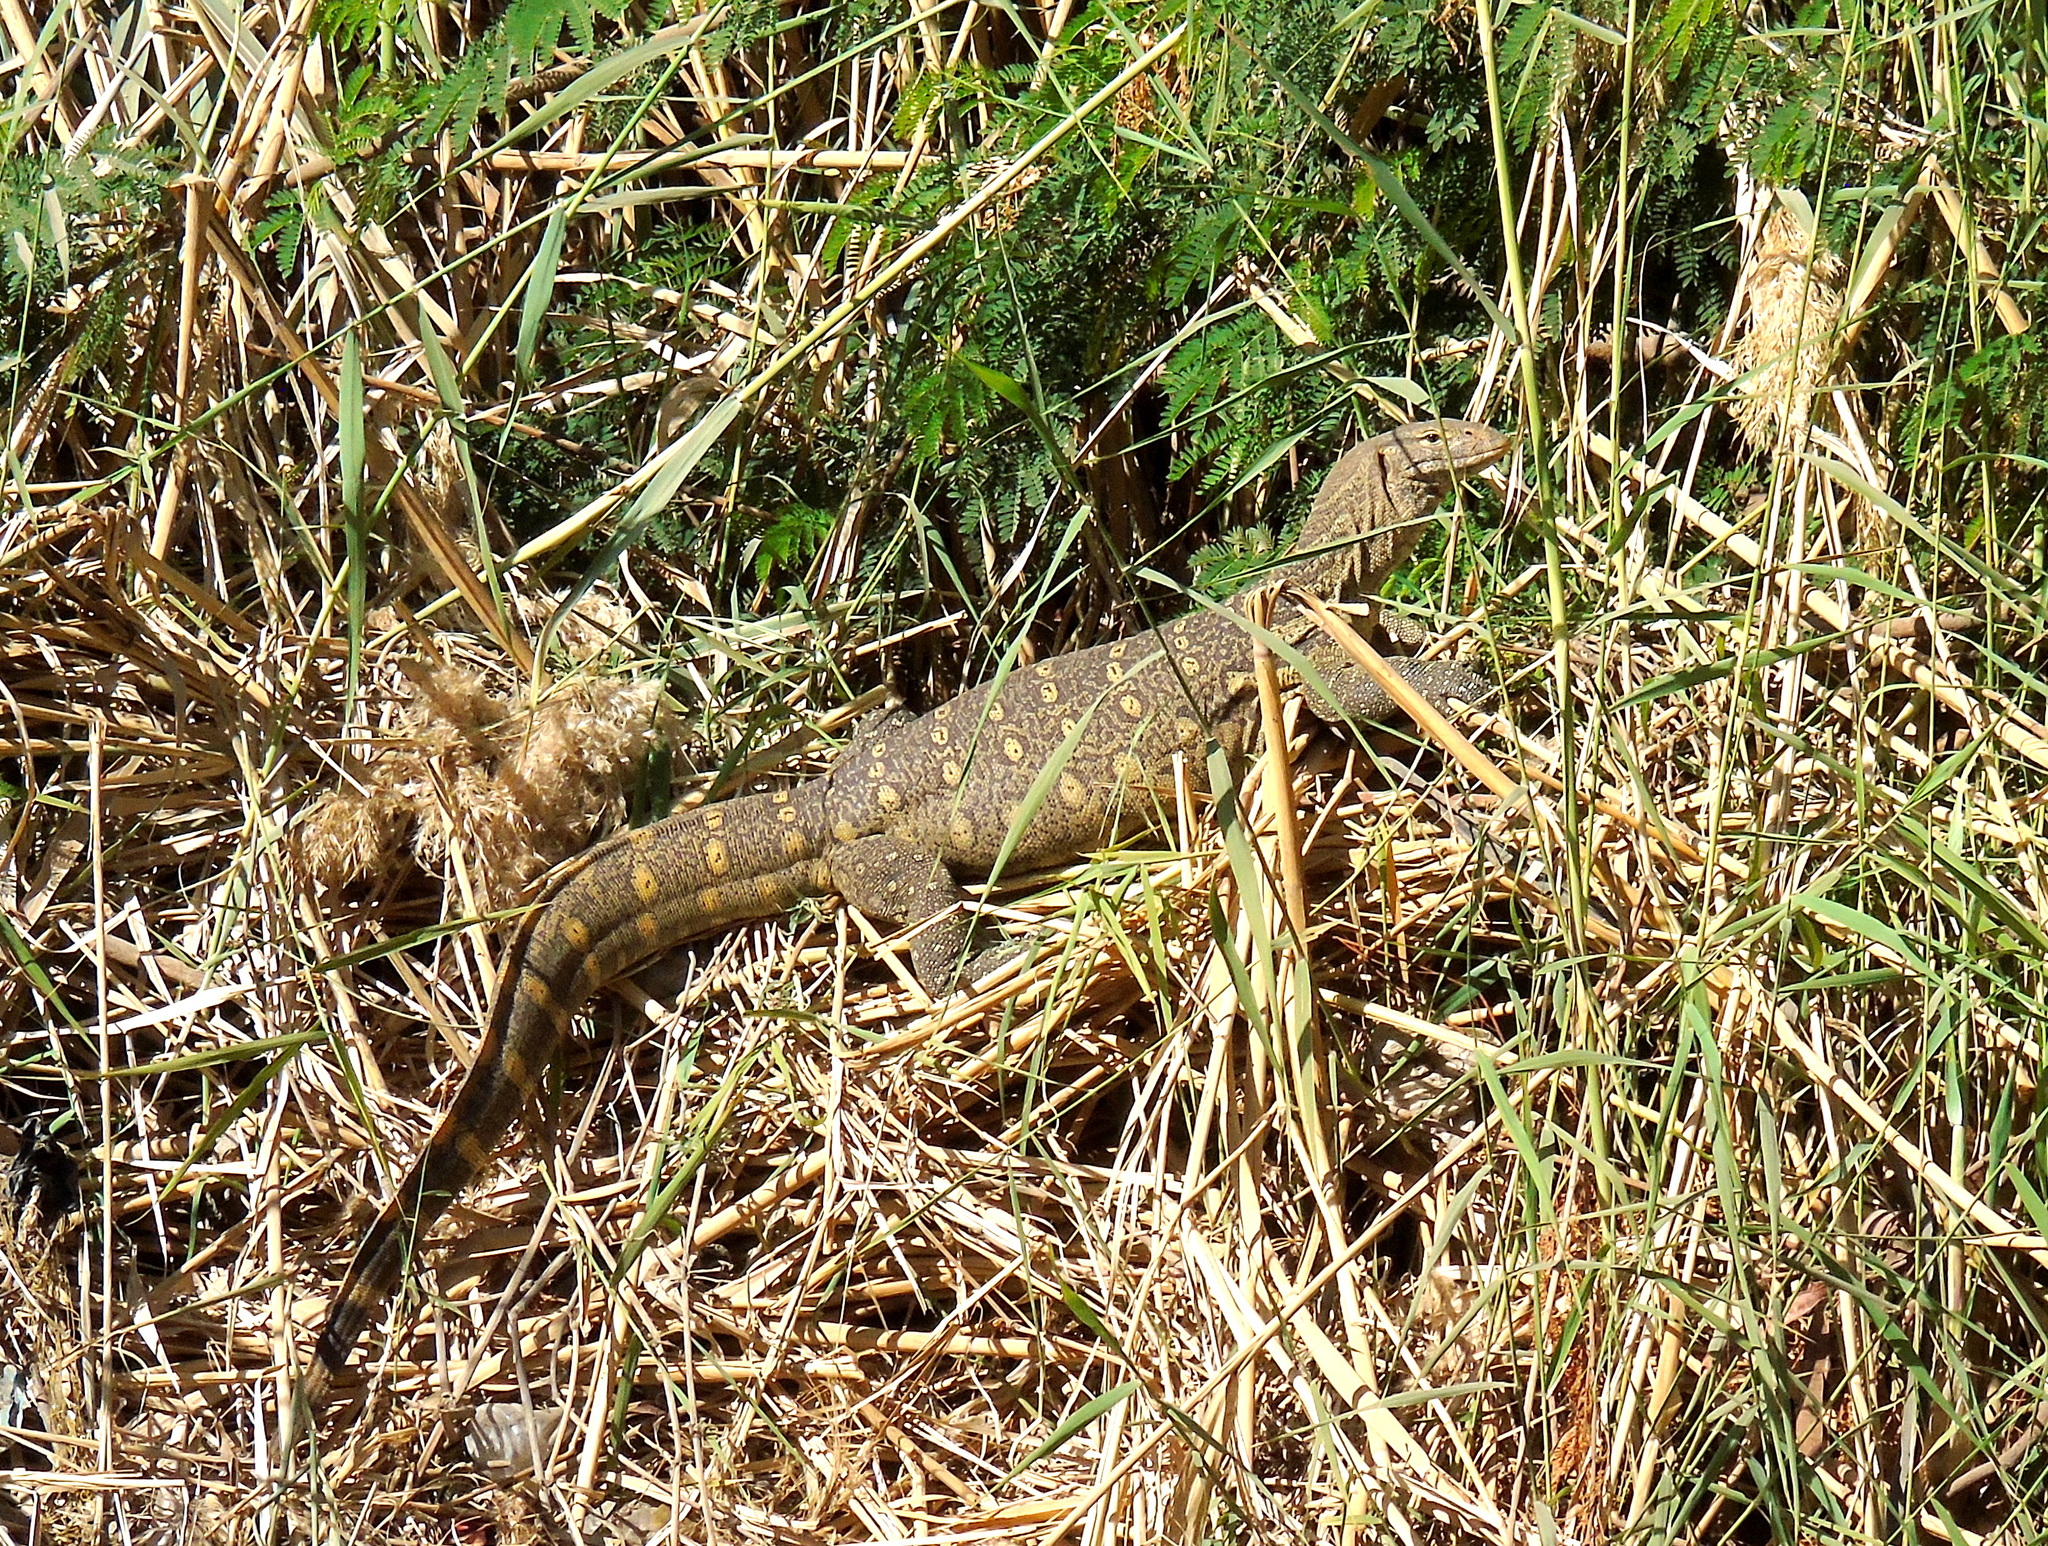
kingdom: Animalia
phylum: Chordata
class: Squamata
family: Varanidae
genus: Varanus
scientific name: Varanus niloticus
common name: Nile monitor
